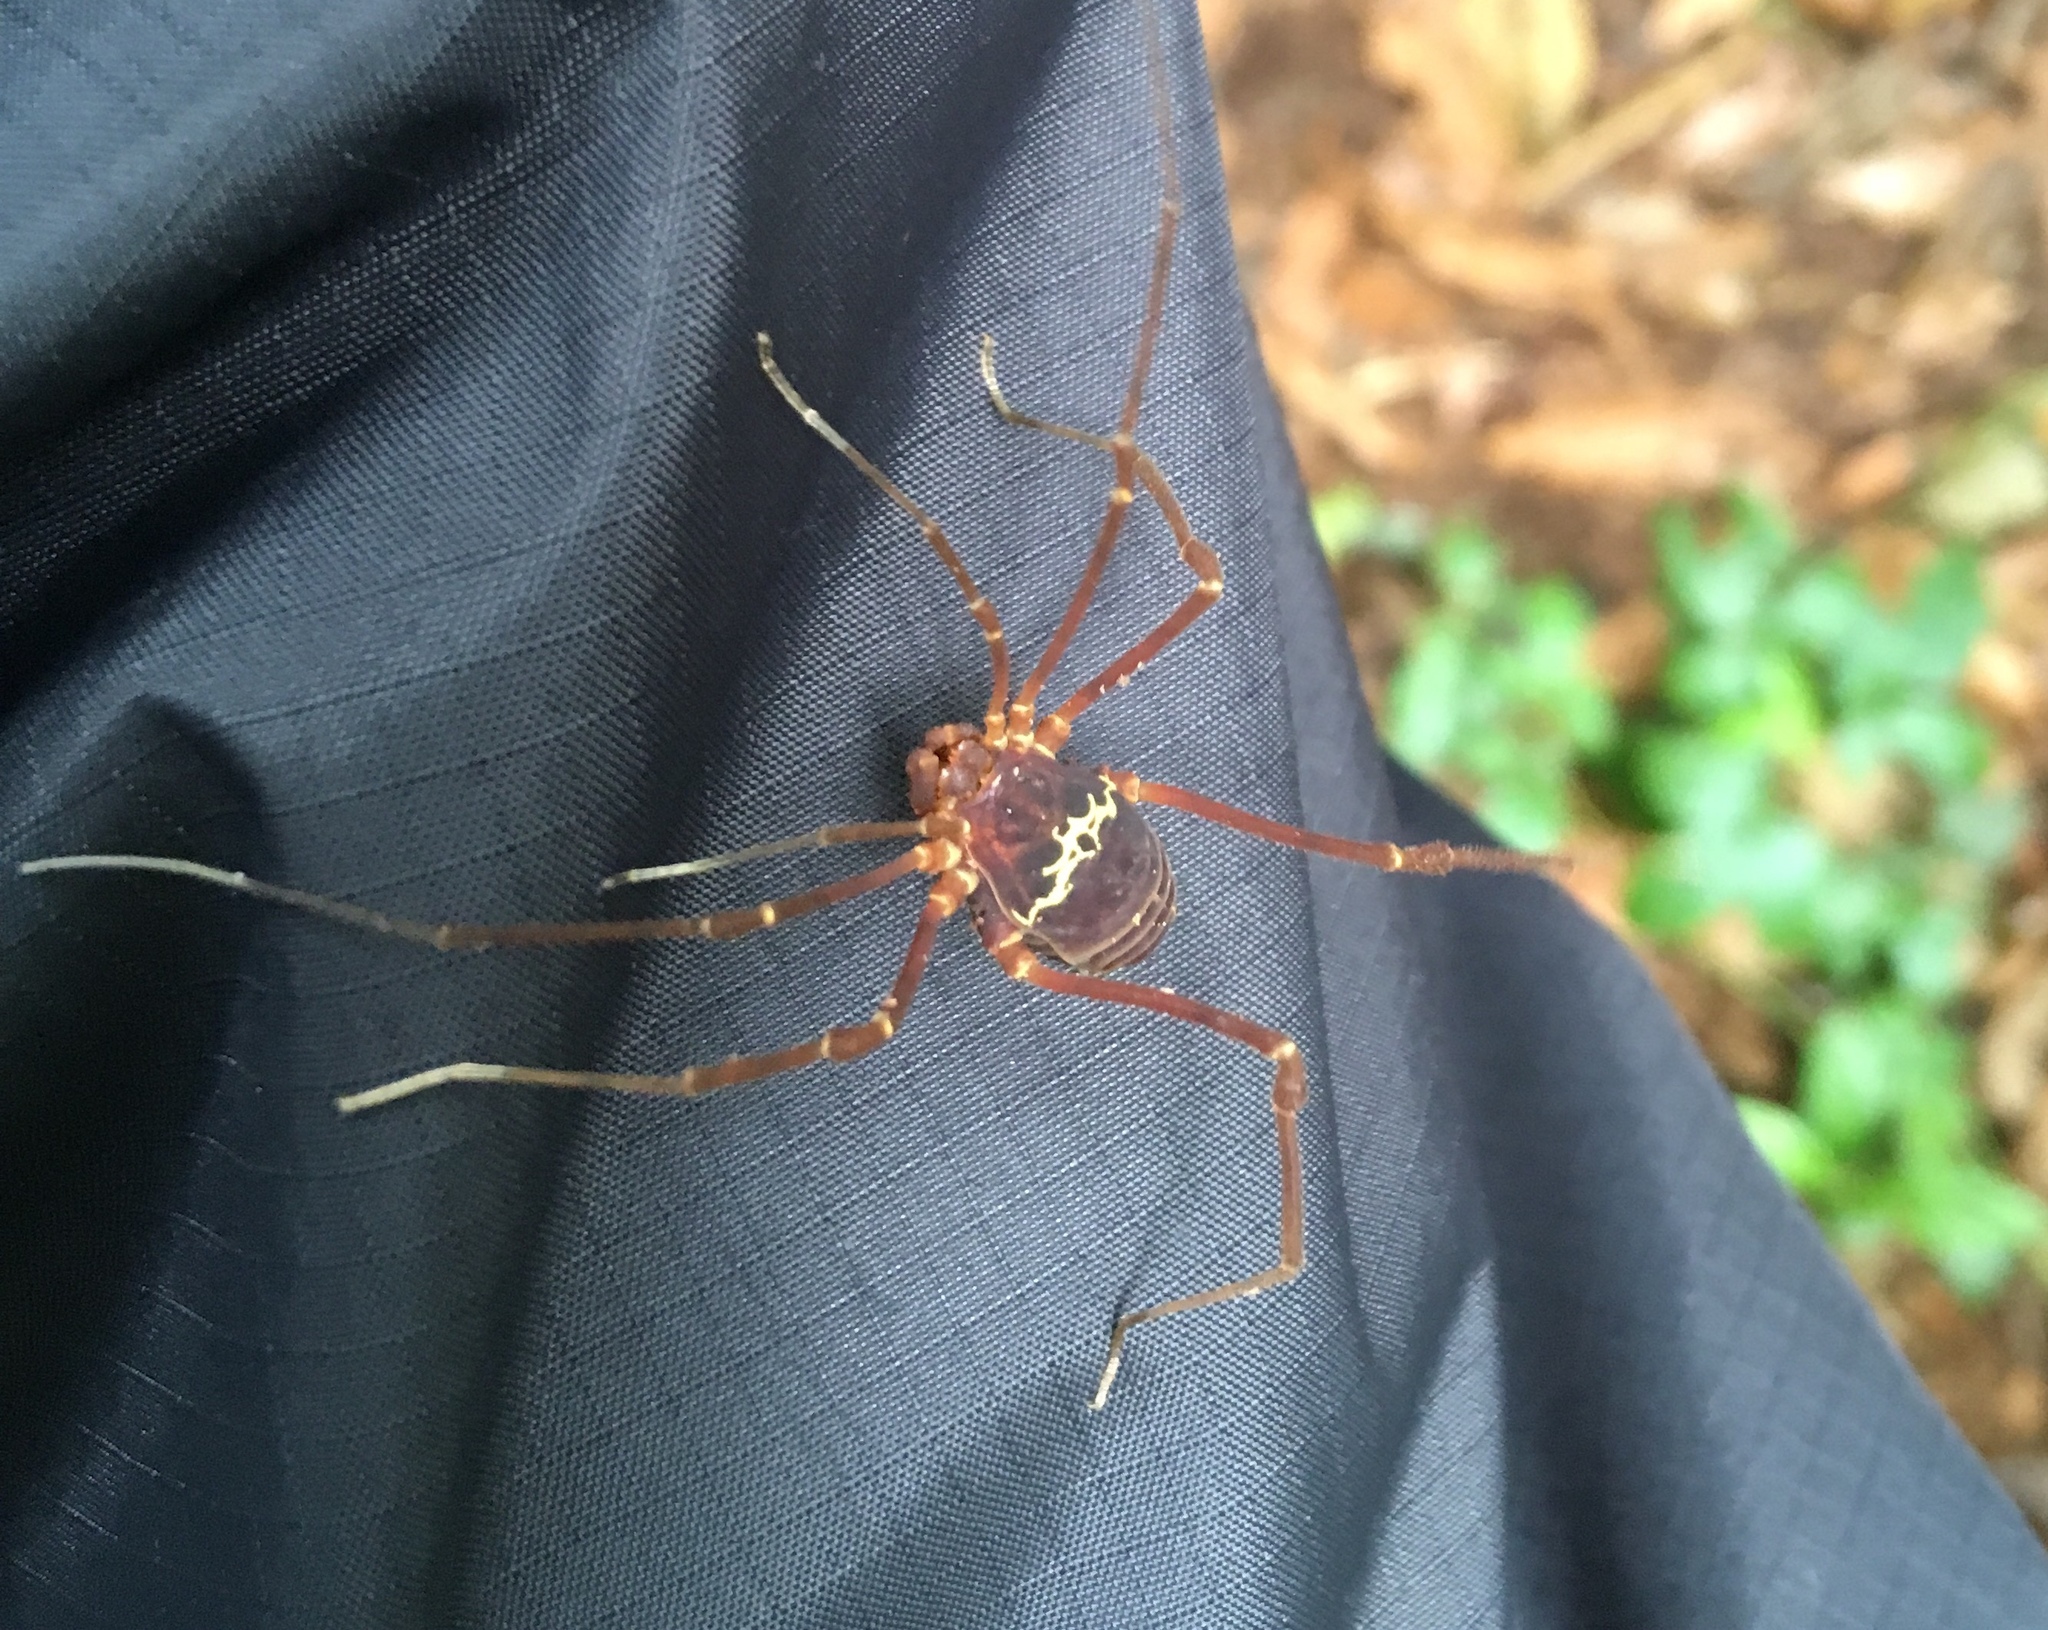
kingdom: Animalia
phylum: Arthropoda
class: Arachnida
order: Opiliones
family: Cosmetidae
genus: Meterginus
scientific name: Meterginus flavicinctus
